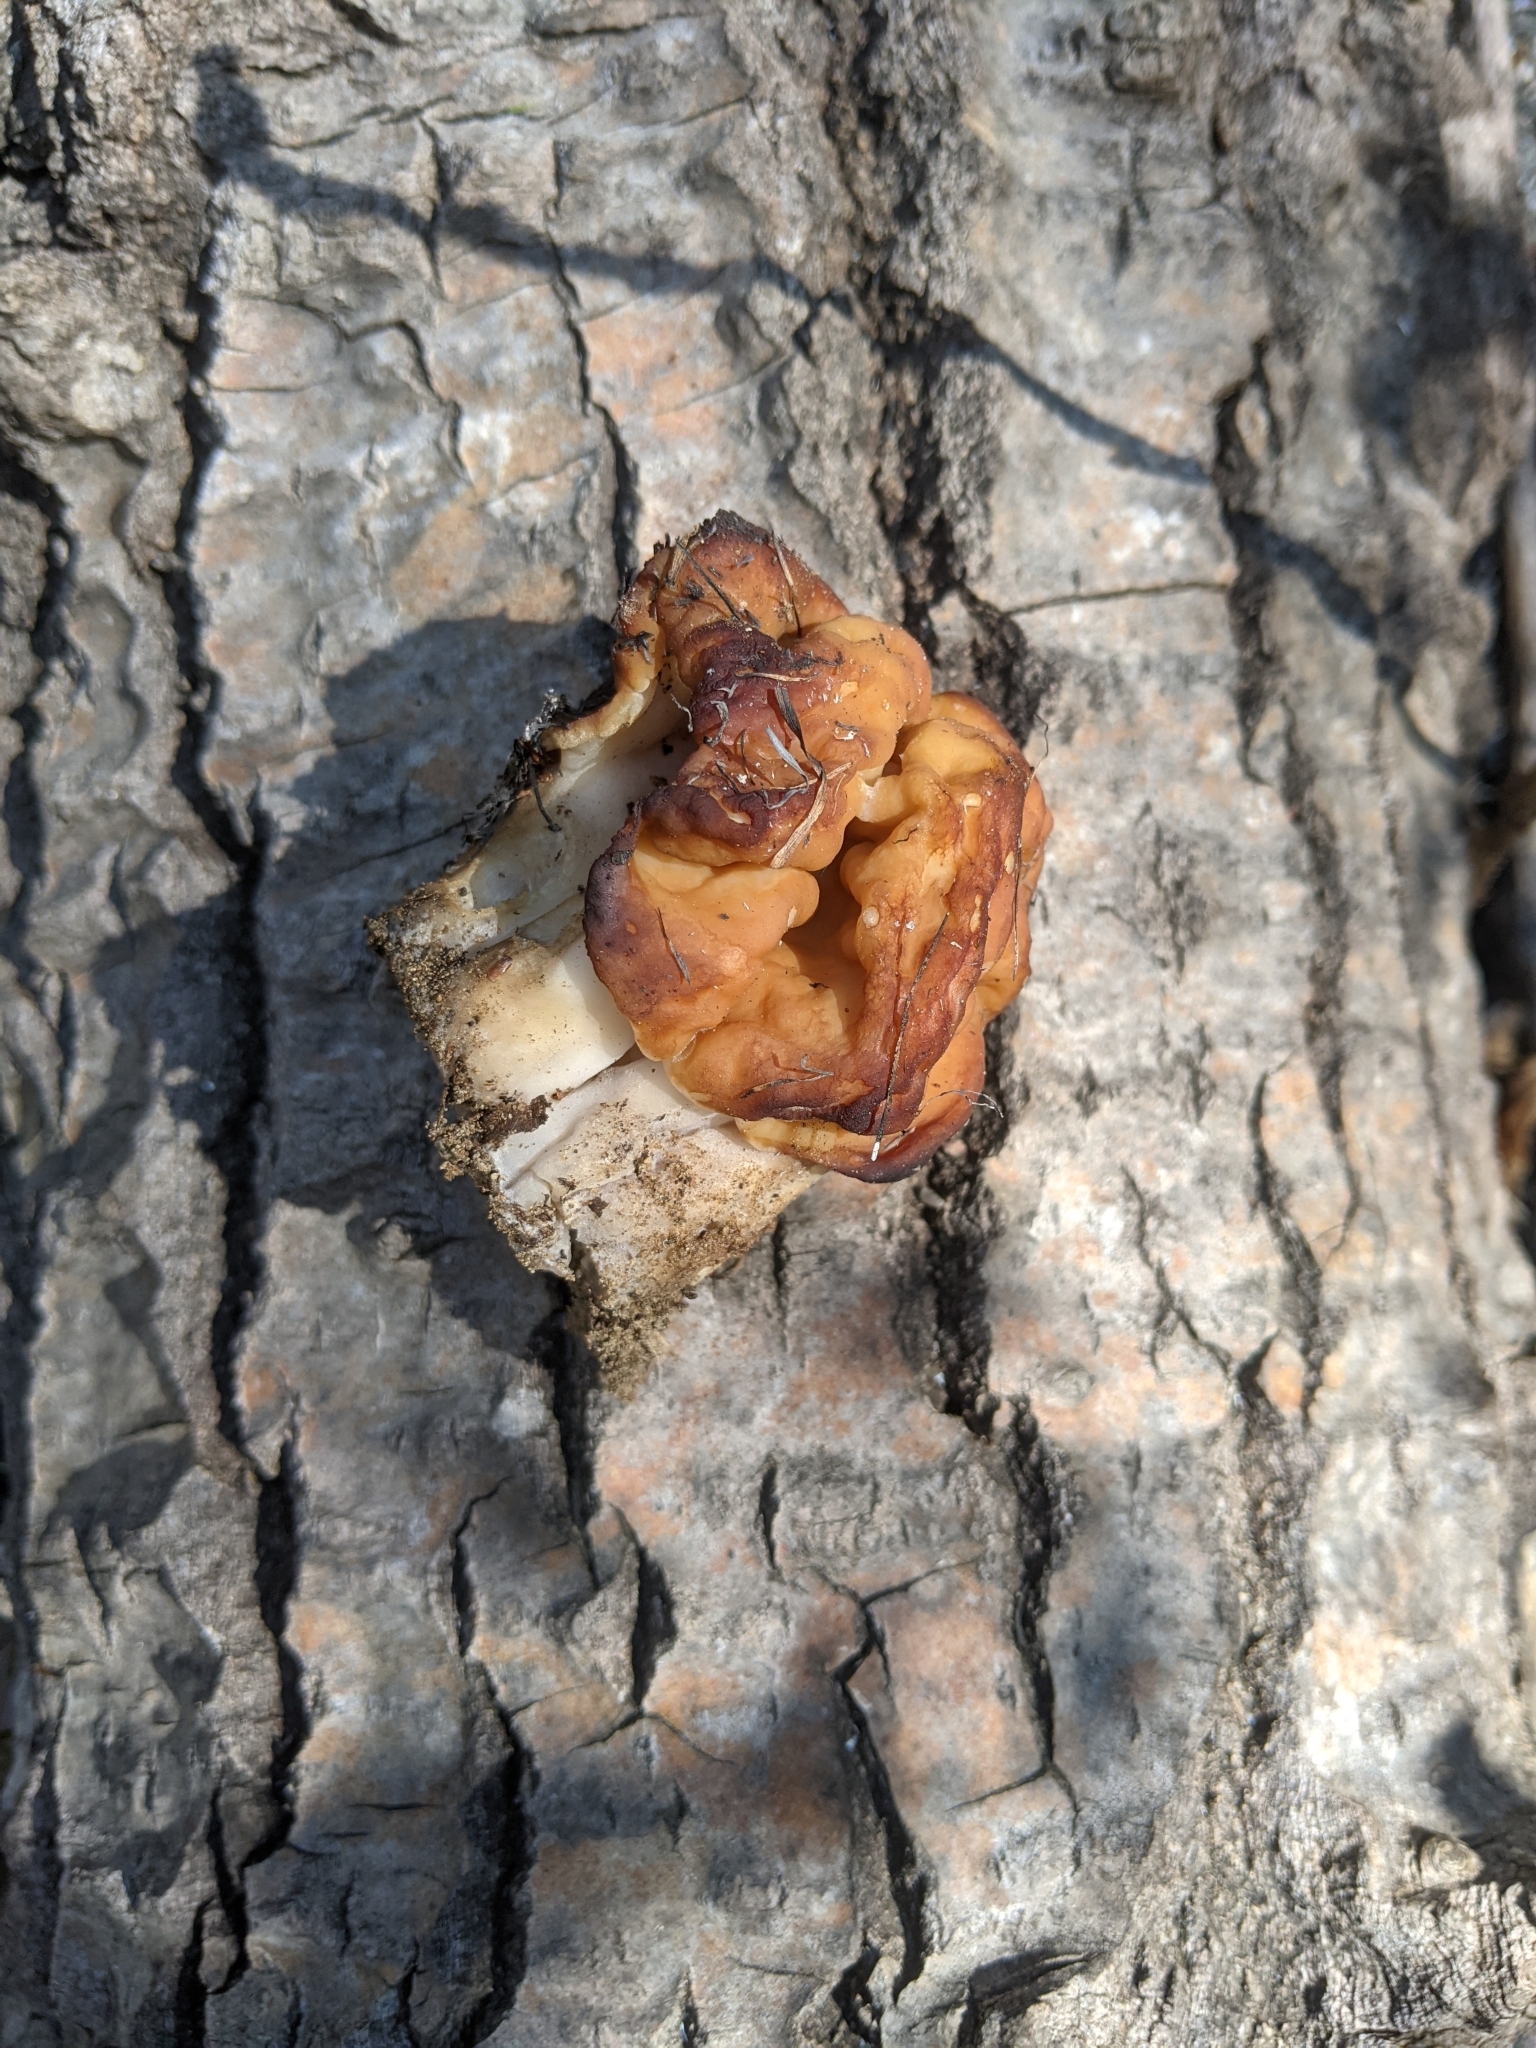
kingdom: Fungi
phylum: Ascomycota
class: Pezizomycetes
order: Pezizales
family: Discinaceae
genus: Gyromitra
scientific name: Gyromitra korfii
